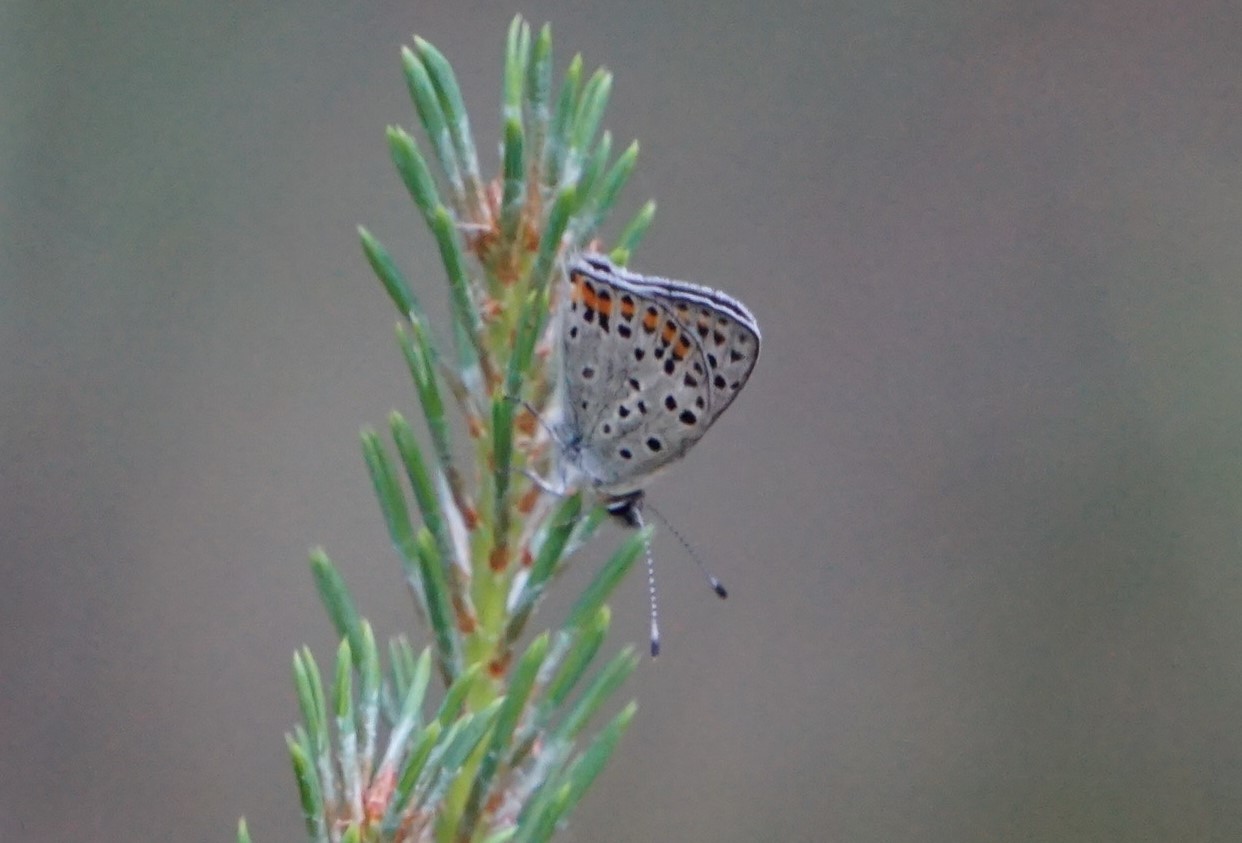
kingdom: Animalia
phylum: Arthropoda
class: Insecta
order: Lepidoptera
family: Lycaenidae
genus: Loweia
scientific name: Loweia tityrus
